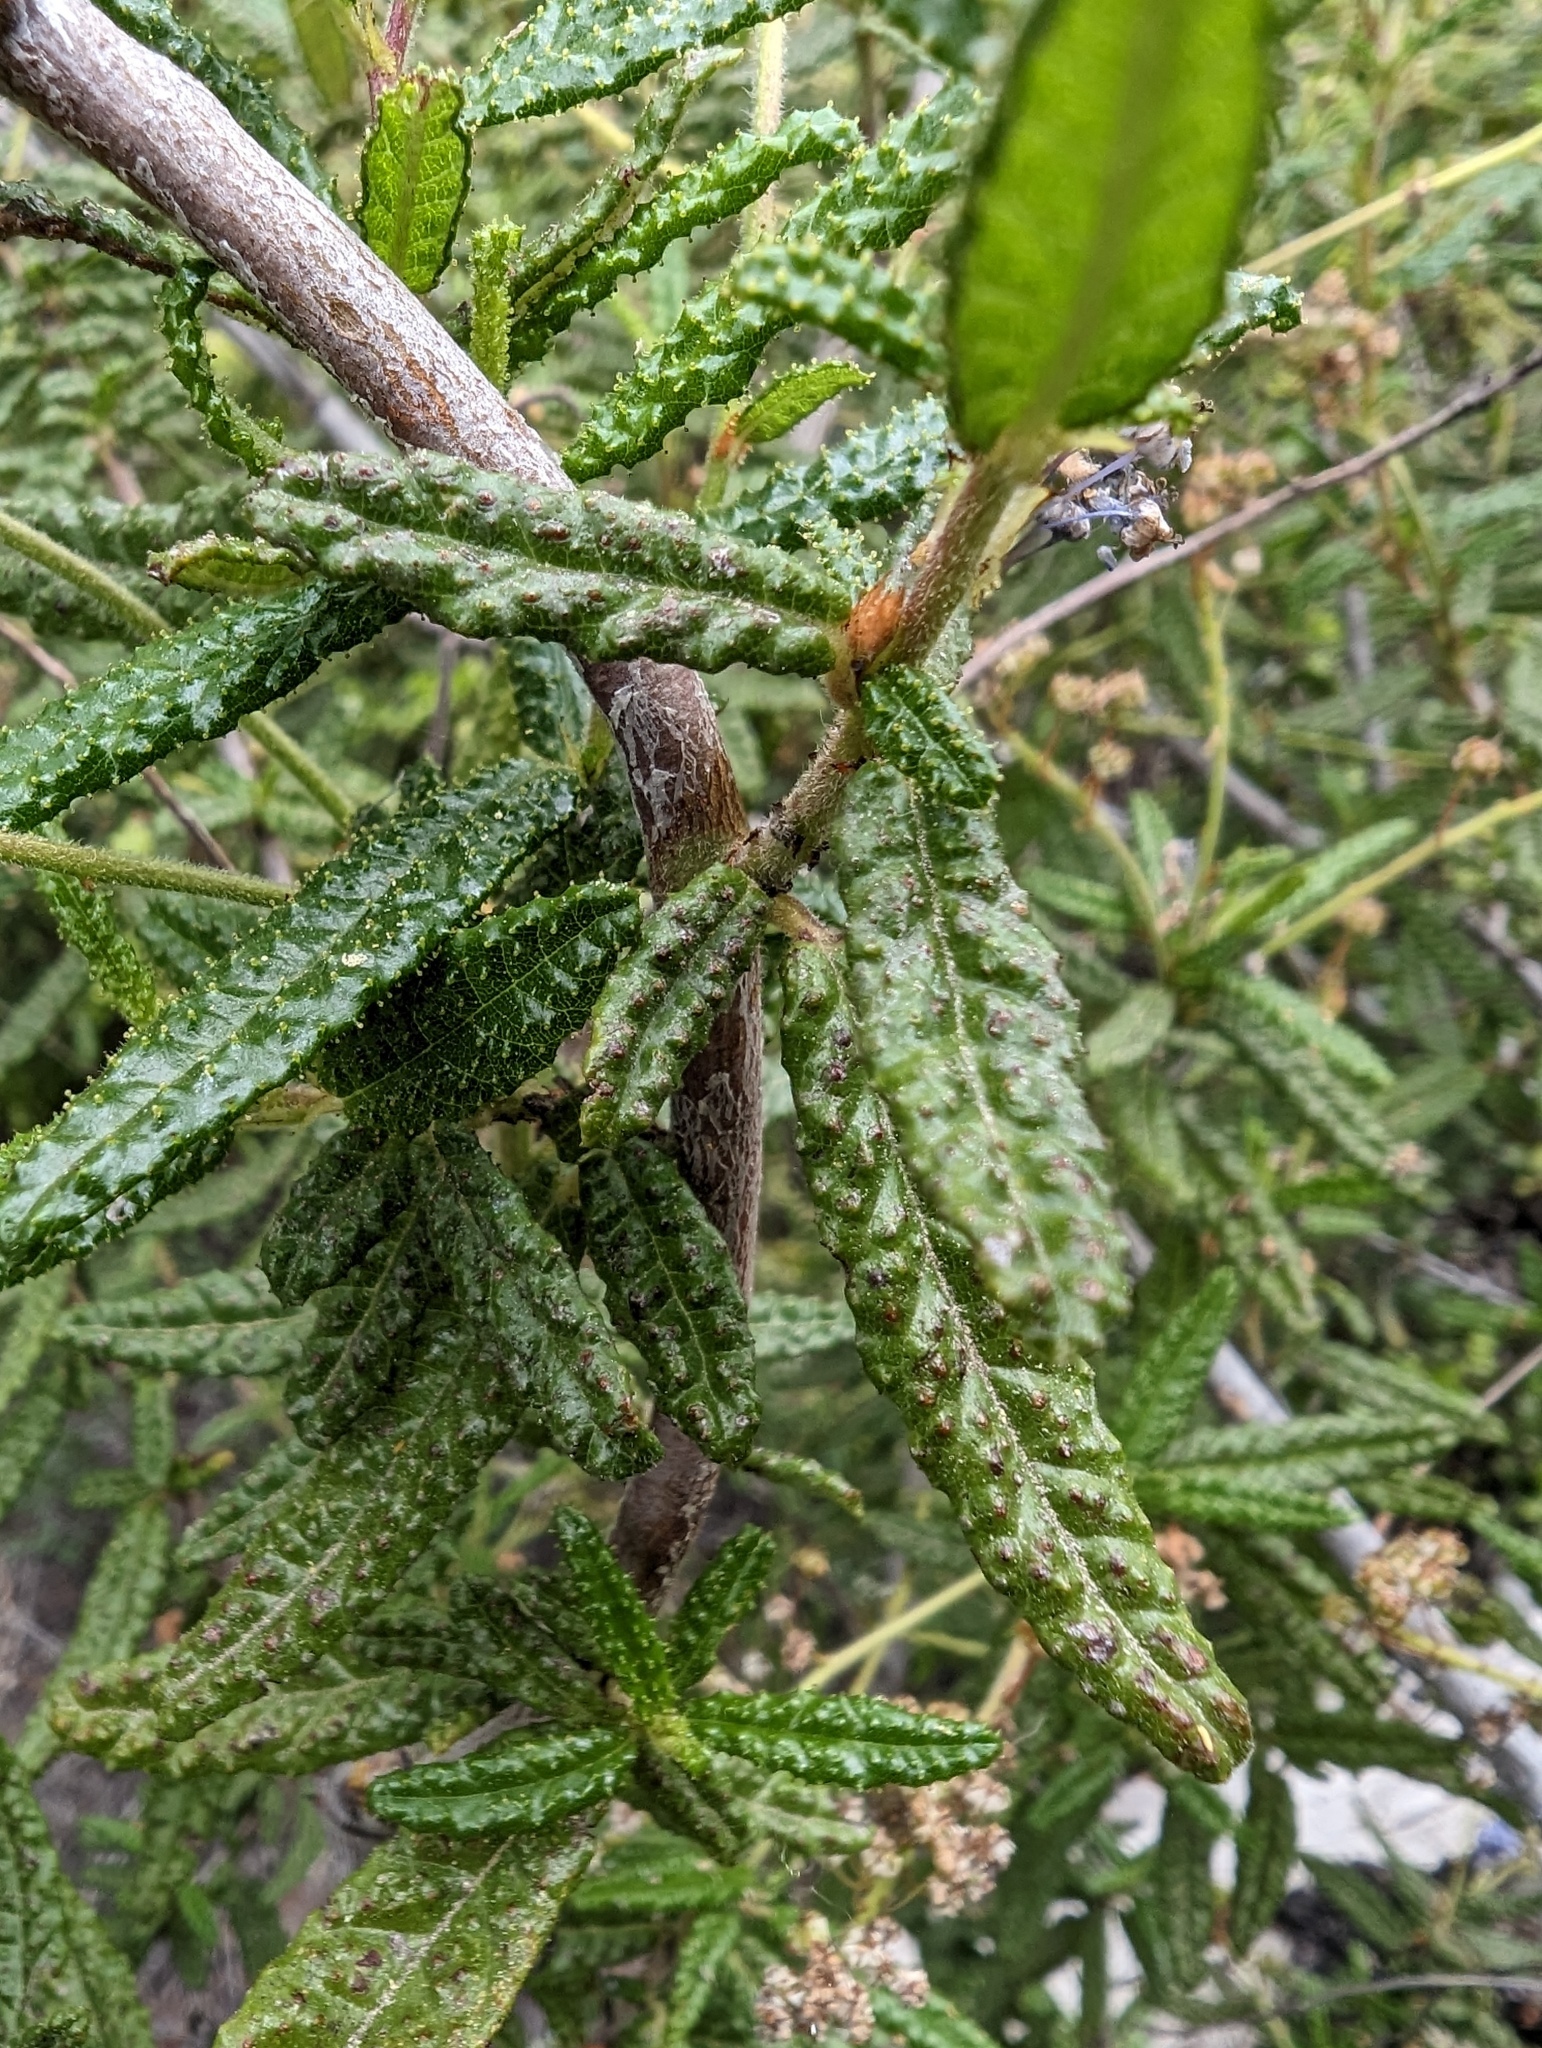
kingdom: Plantae
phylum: Tracheophyta
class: Magnoliopsida
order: Rosales
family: Rhamnaceae
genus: Ceanothus
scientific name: Ceanothus papillosus
